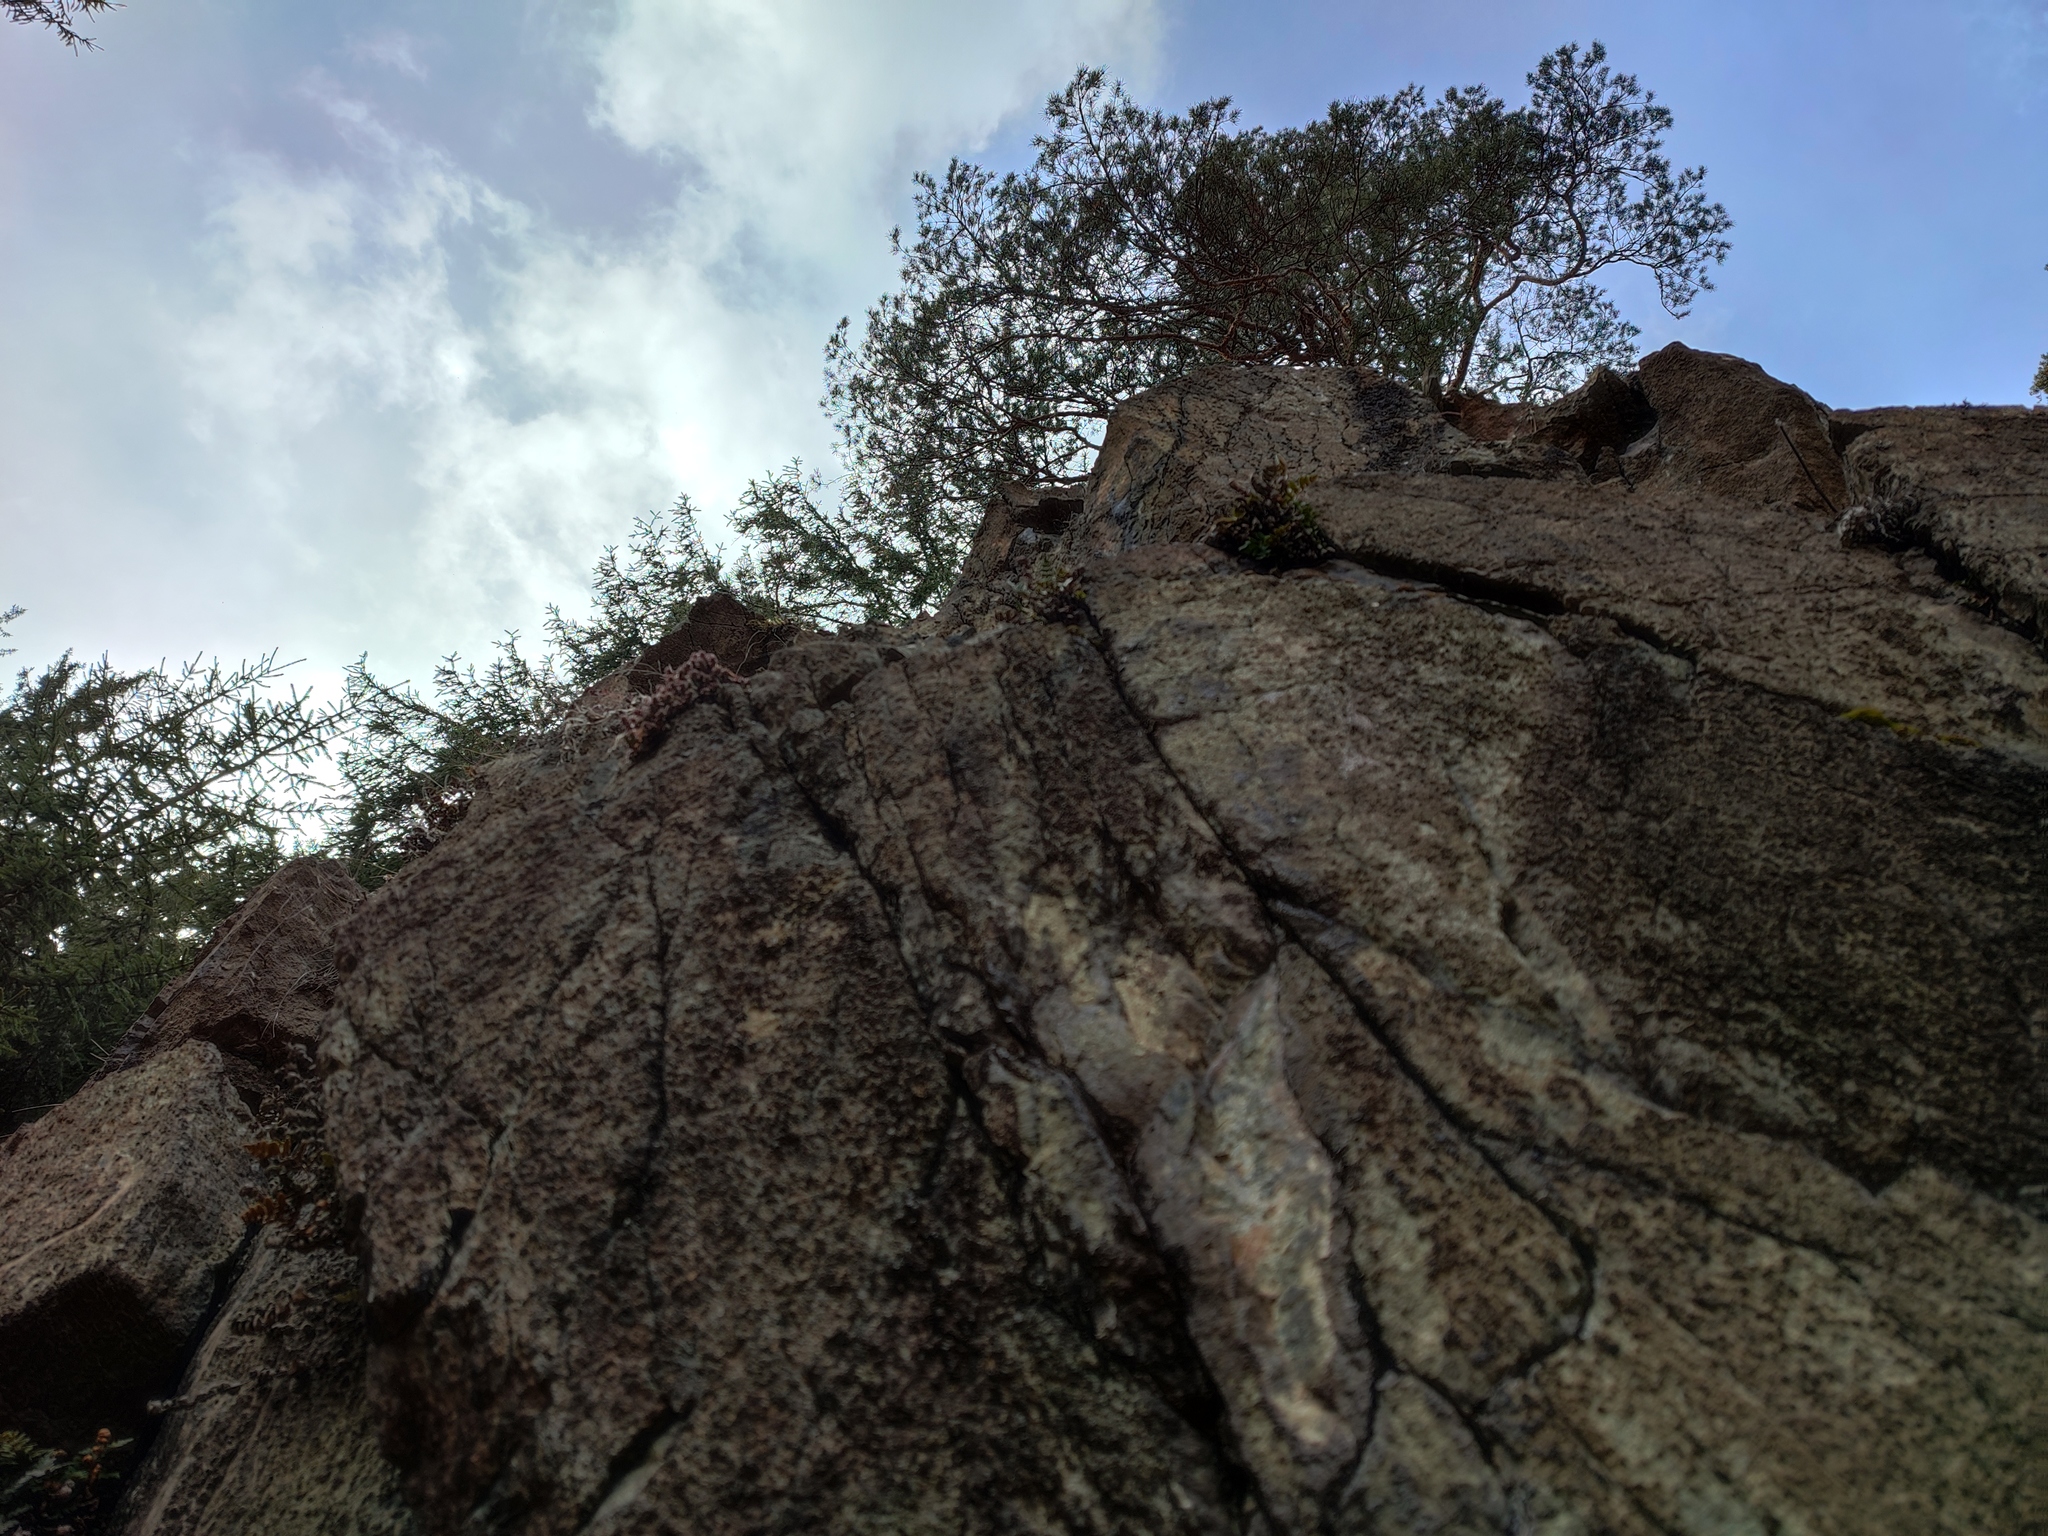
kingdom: Plantae
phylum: Tracheophyta
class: Polypodiopsida
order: Polypodiales
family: Pteridaceae
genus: Paragymnopteris
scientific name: Paragymnopteris marantae
